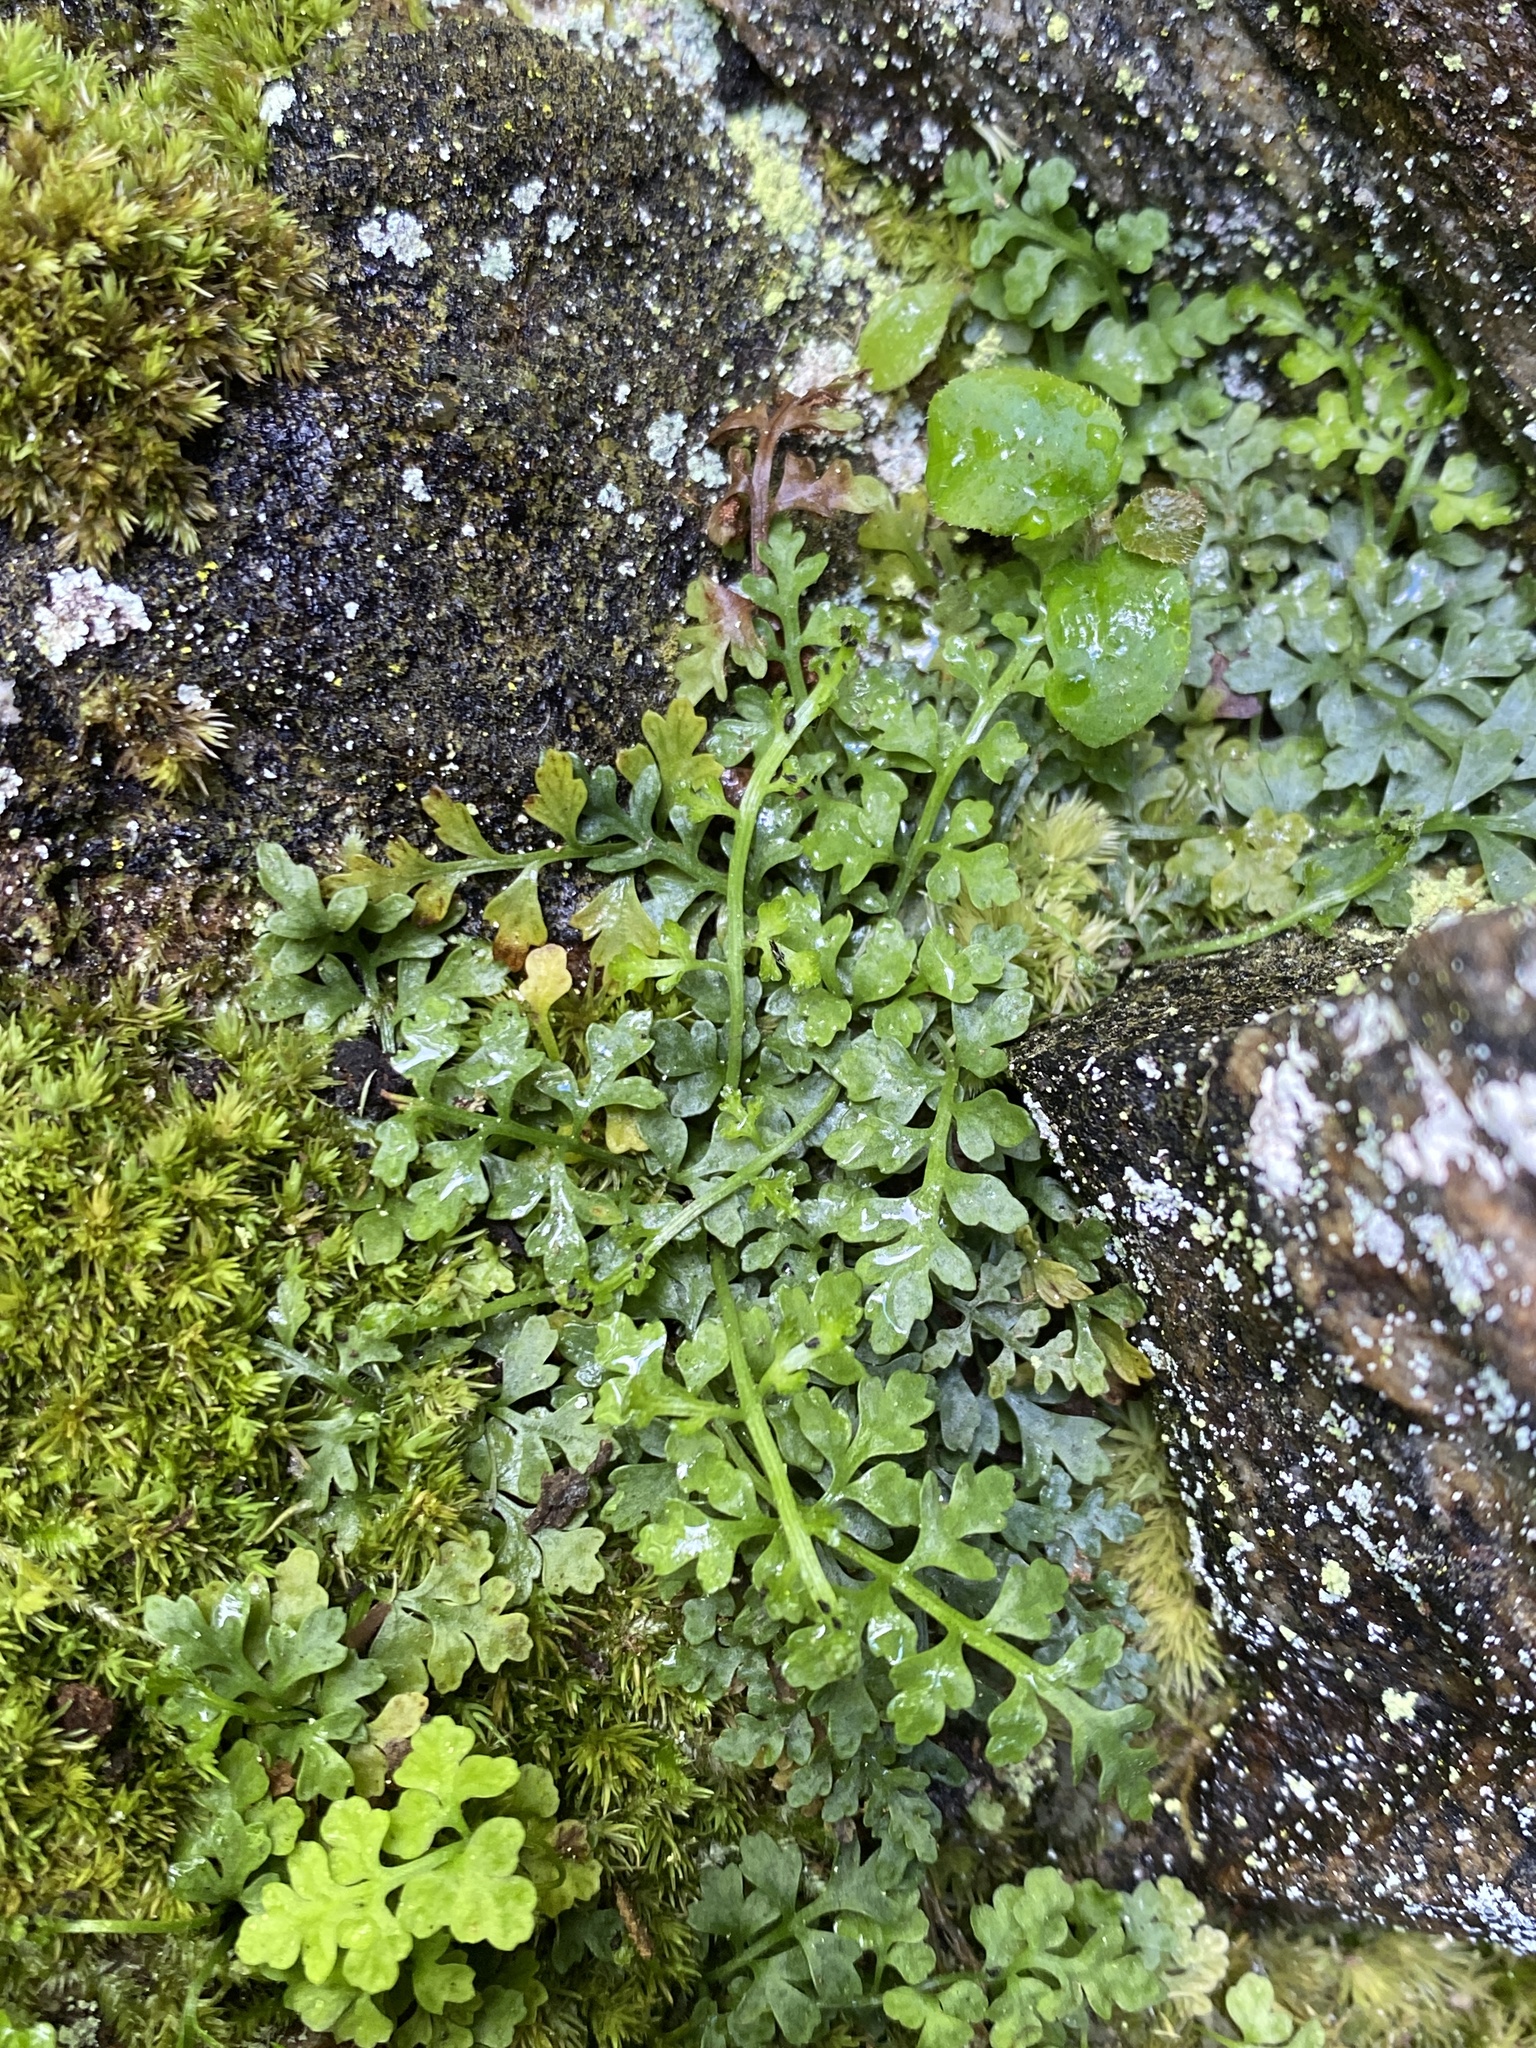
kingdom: Plantae
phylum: Tracheophyta
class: Polypodiopsida
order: Polypodiales
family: Aspleniaceae
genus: Asplenium
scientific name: Asplenium montanum
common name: Mountain spleenwort
